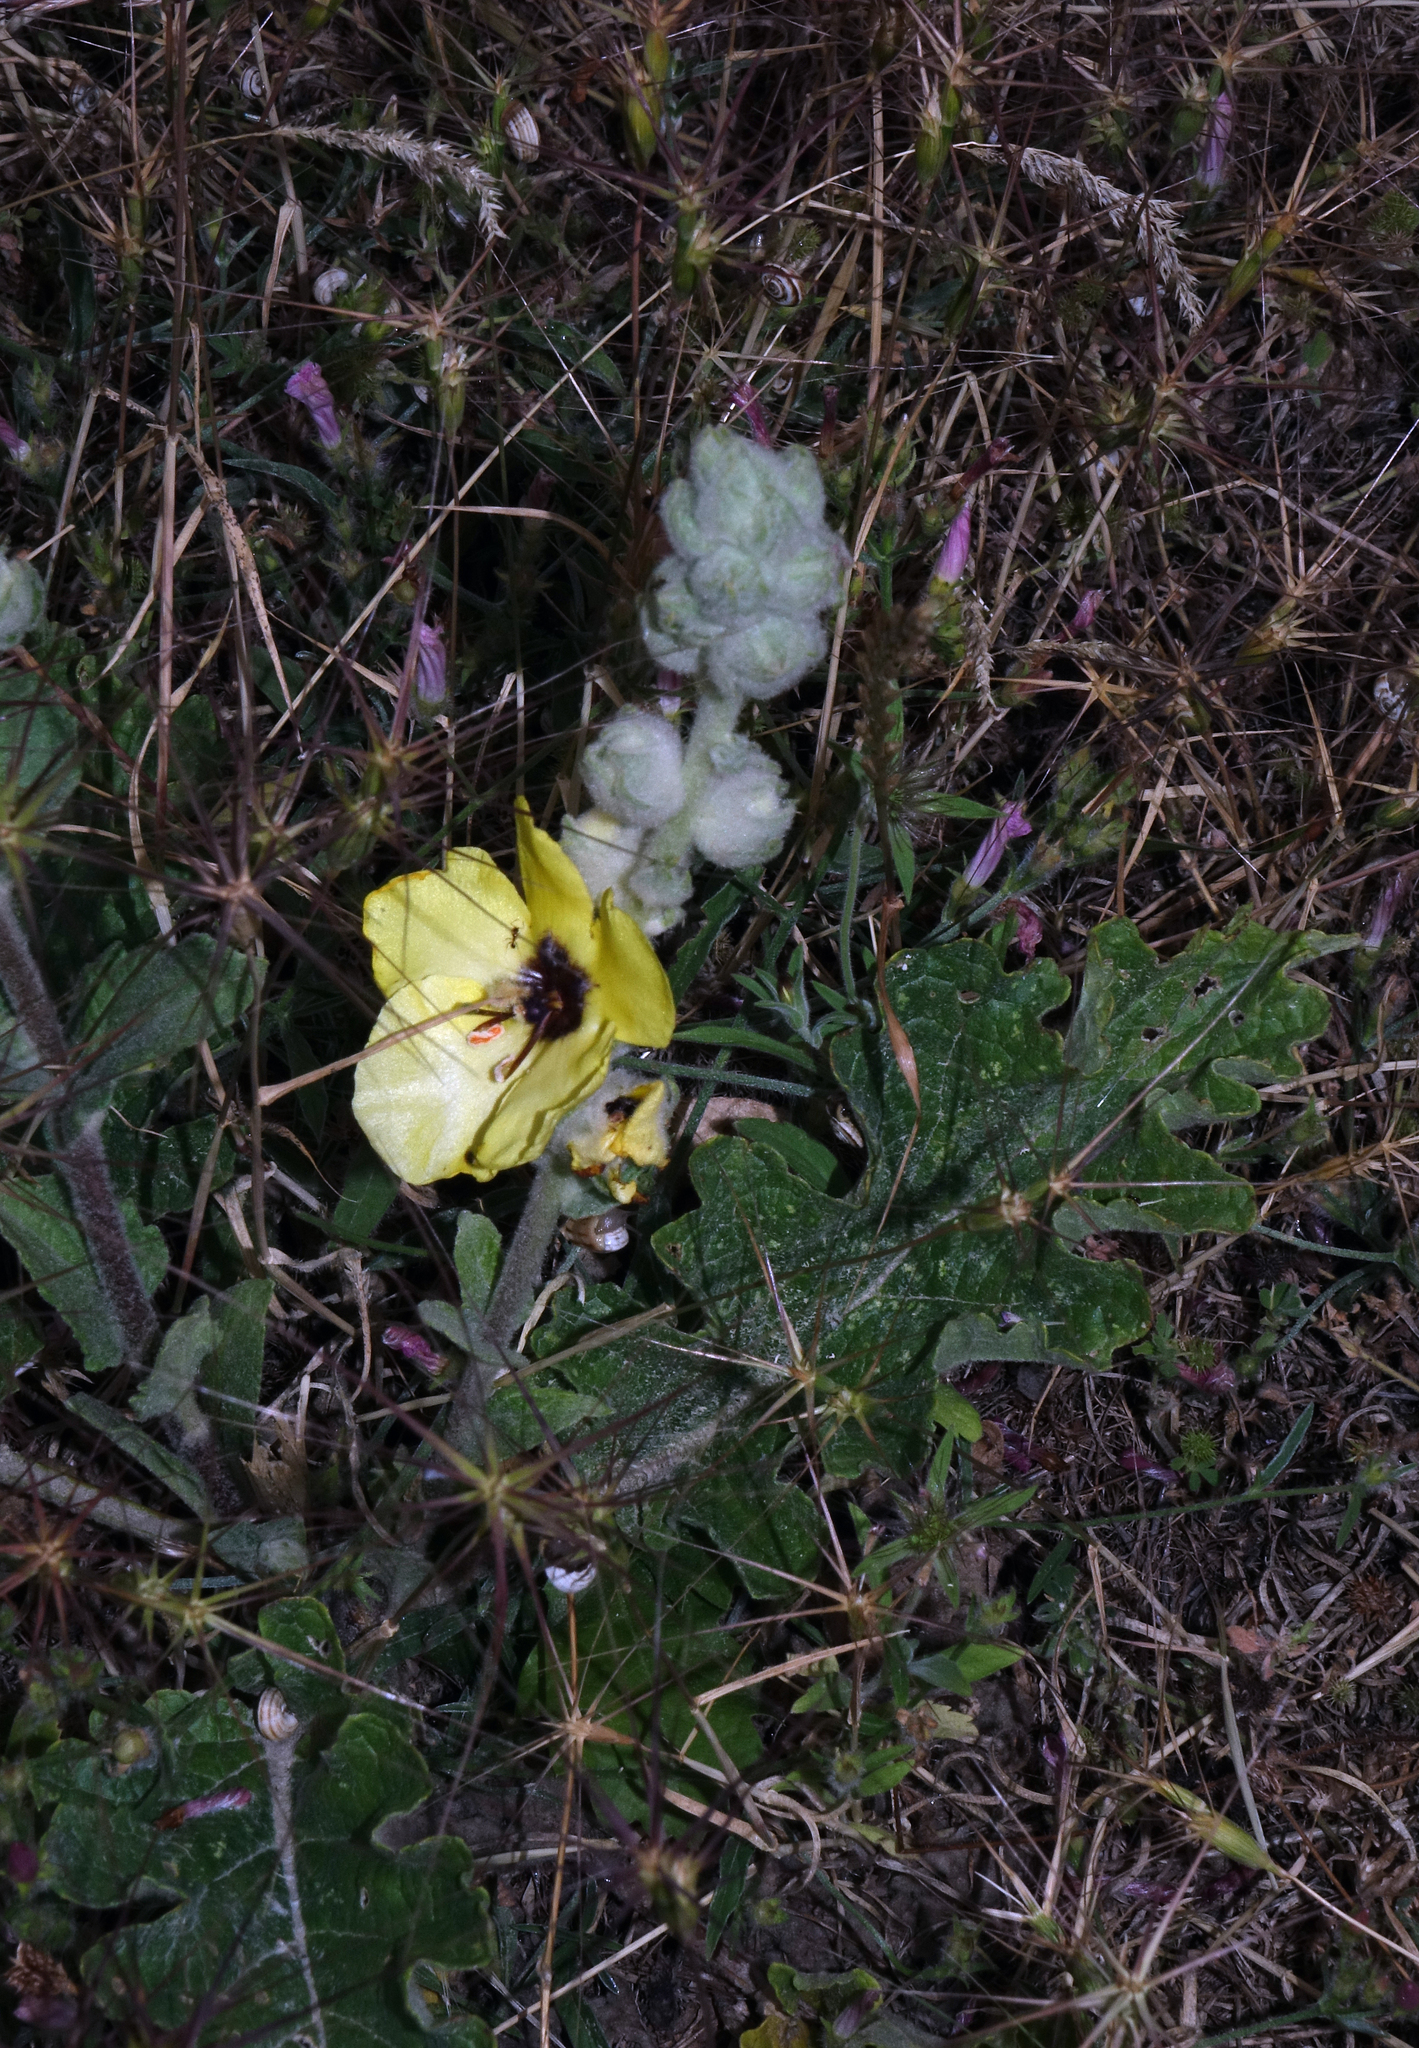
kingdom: Plantae
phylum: Tracheophyta
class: Magnoliopsida
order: Lamiales
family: Scrophulariaceae
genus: Verbascum
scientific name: Verbascum formosum
